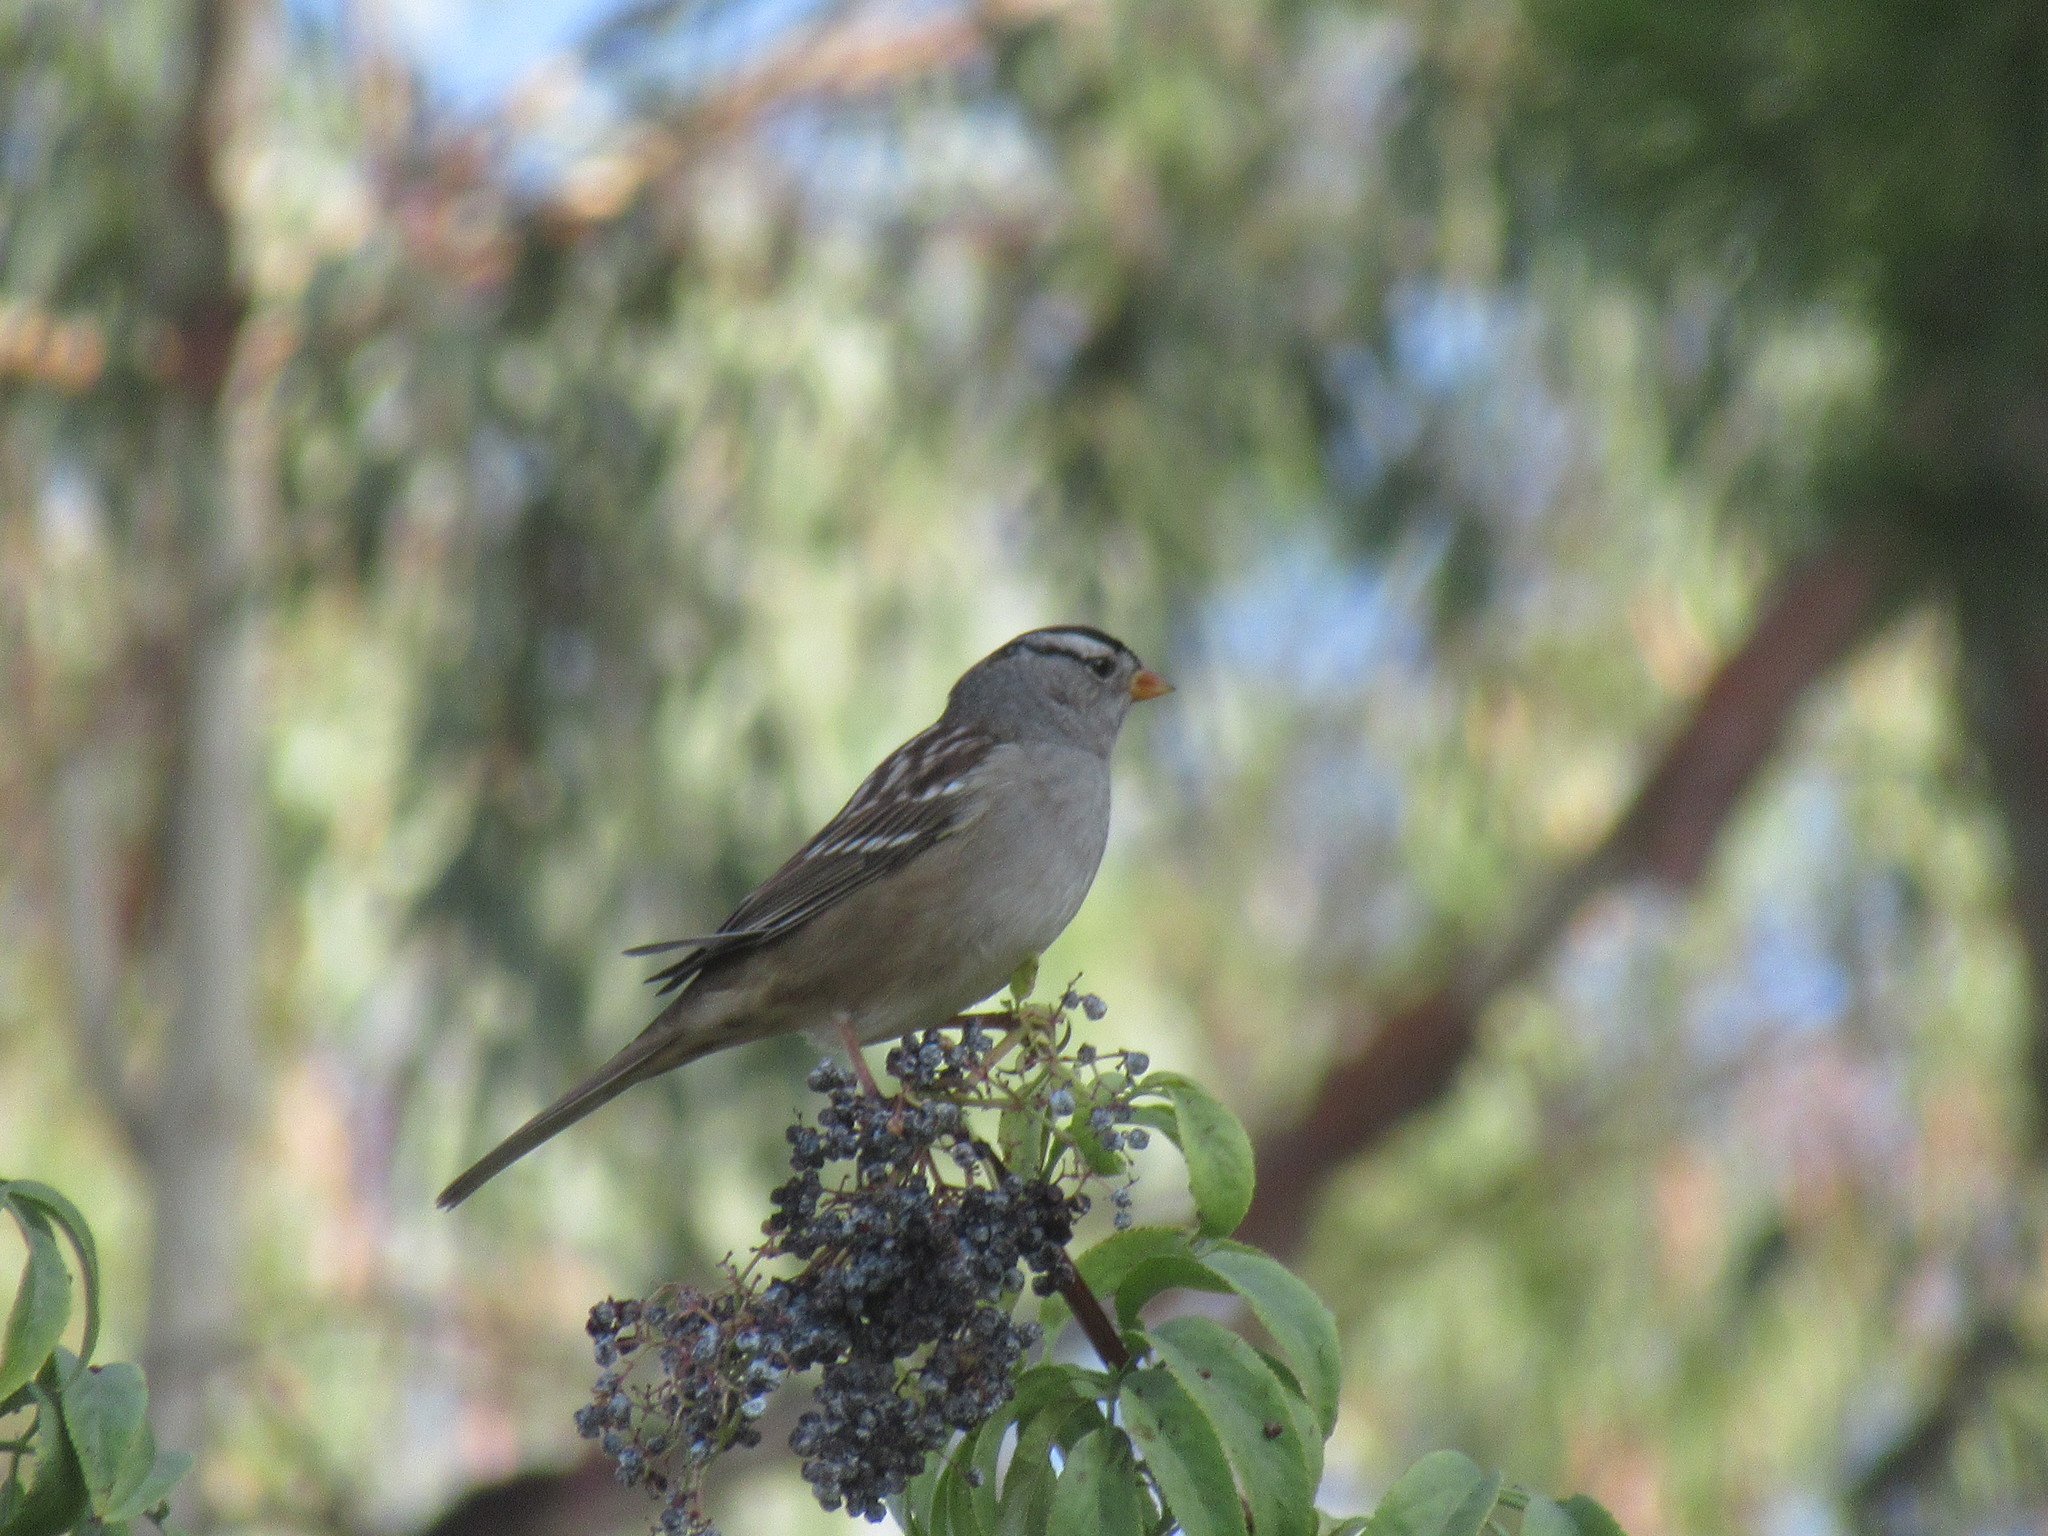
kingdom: Animalia
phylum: Chordata
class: Aves
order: Passeriformes
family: Passerellidae
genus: Zonotrichia
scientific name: Zonotrichia leucophrys
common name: White-crowned sparrow
